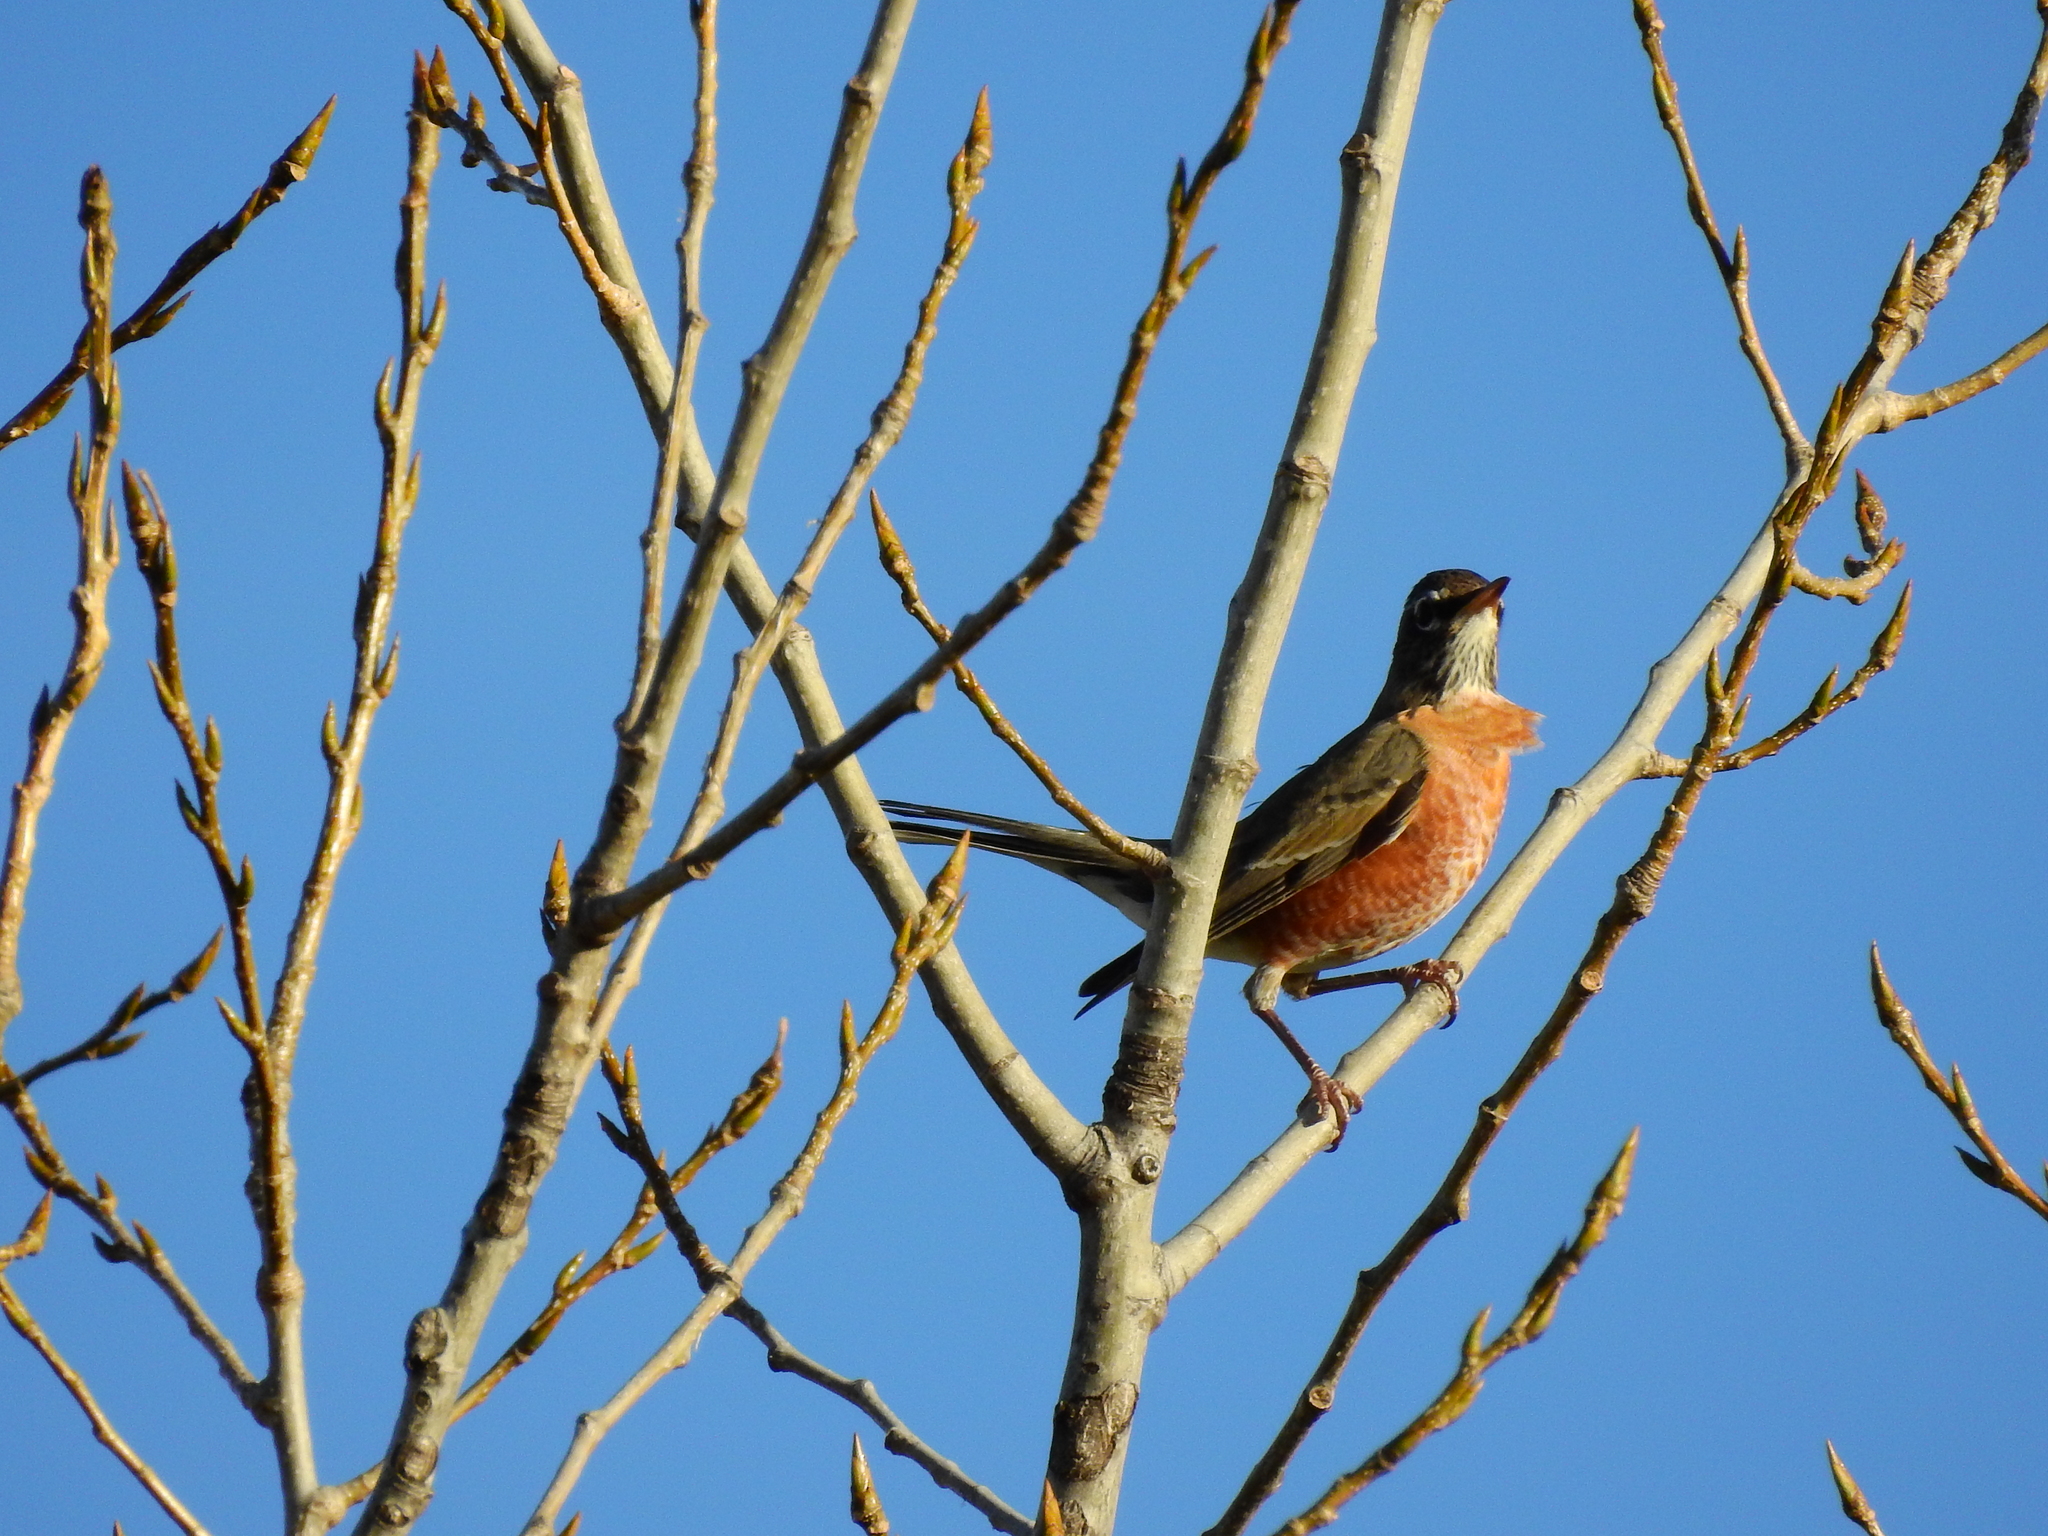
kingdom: Animalia
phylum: Chordata
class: Aves
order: Passeriformes
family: Turdidae
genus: Turdus
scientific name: Turdus migratorius
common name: American robin
